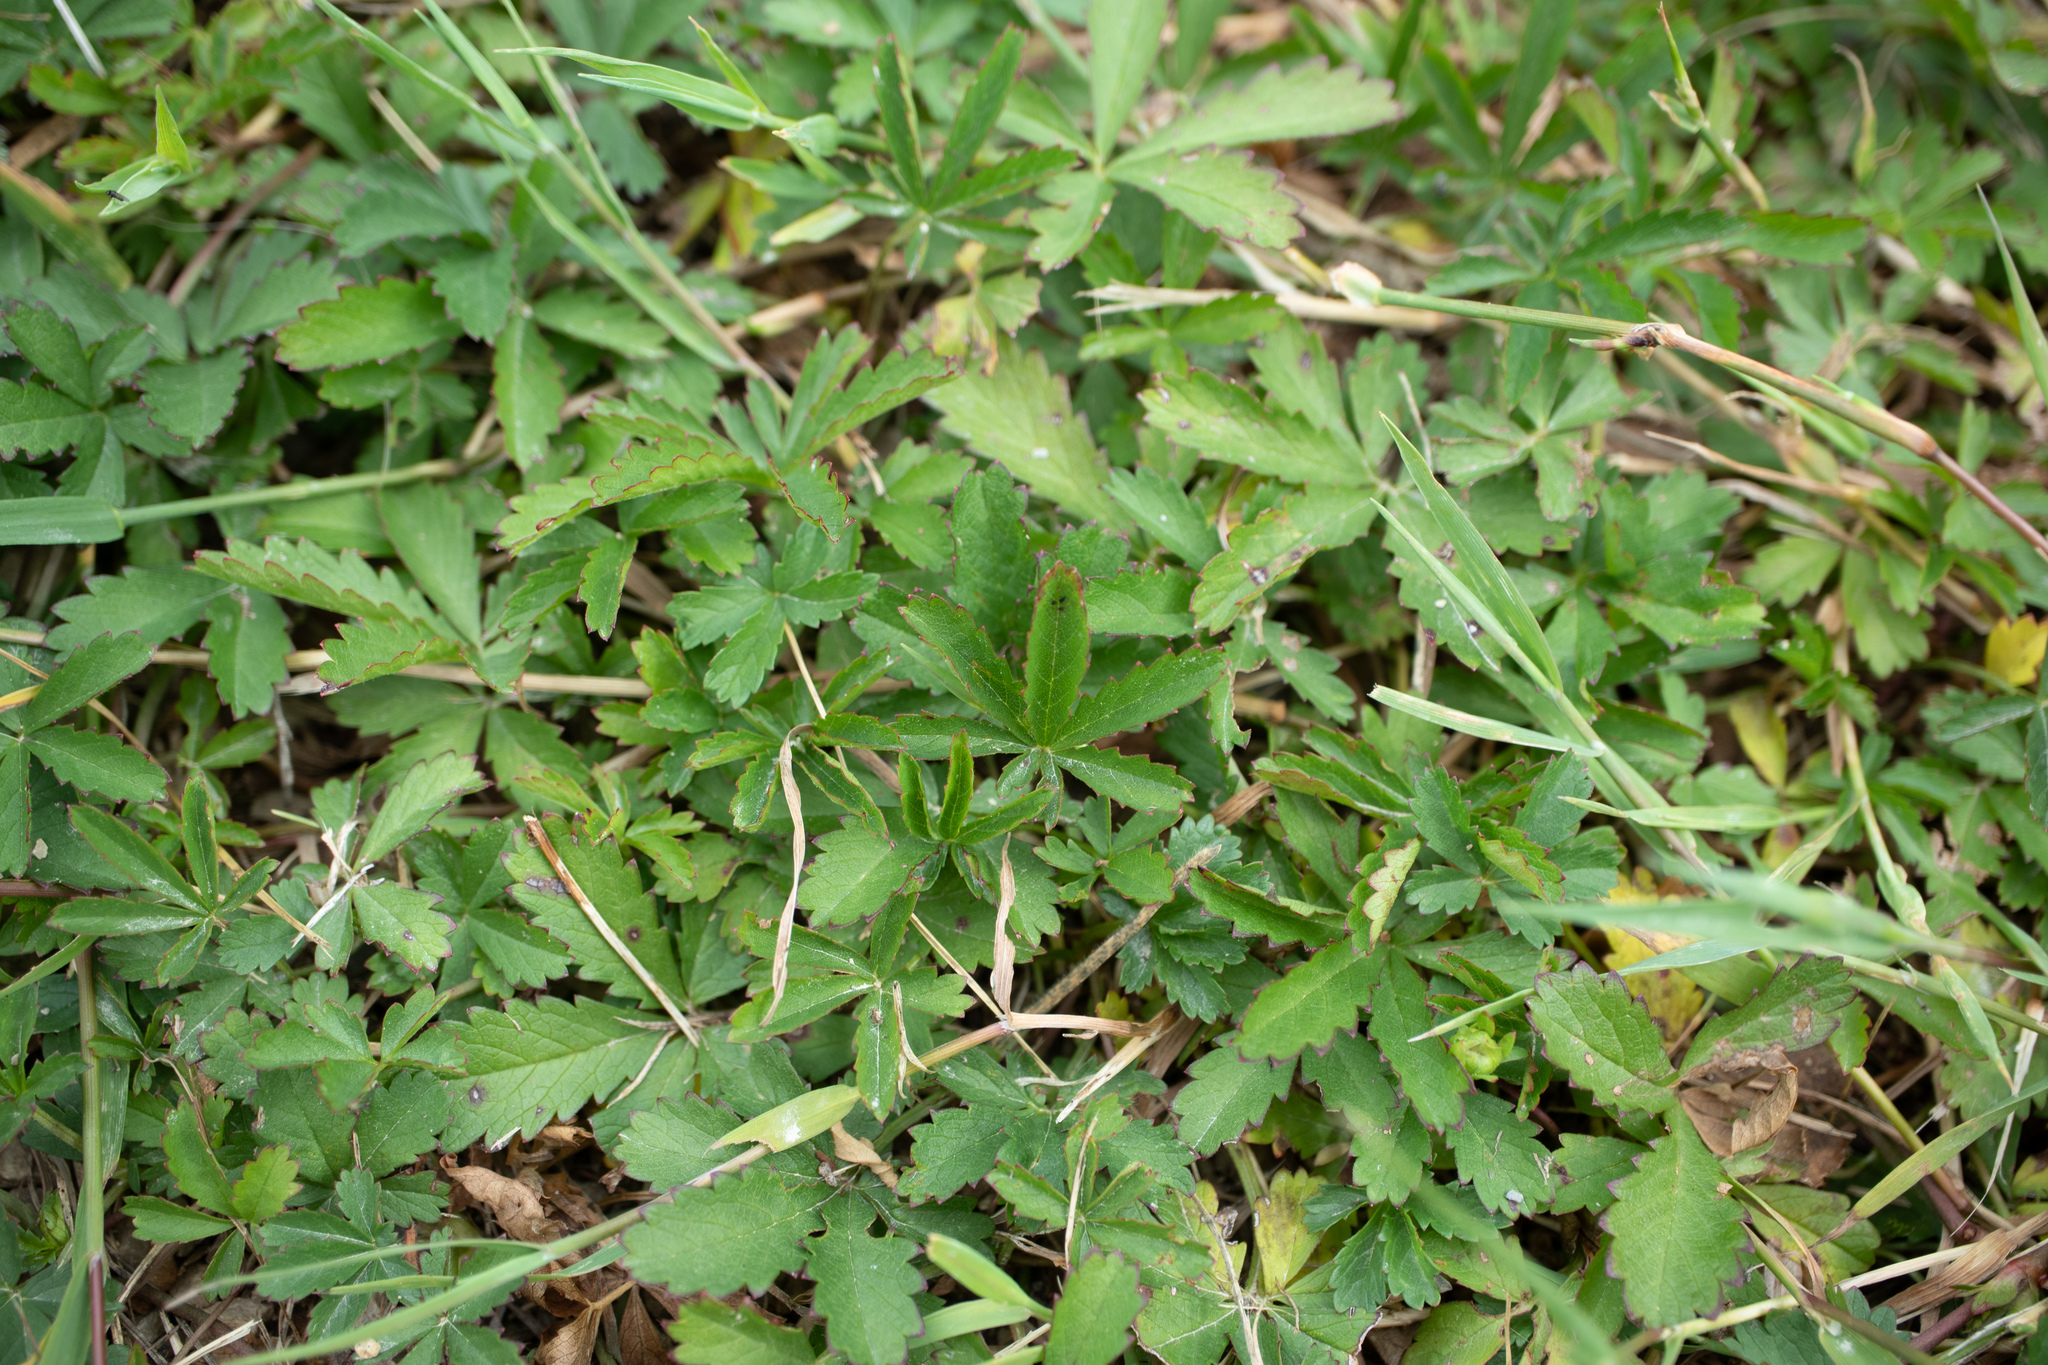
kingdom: Plantae
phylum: Tracheophyta
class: Magnoliopsida
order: Rosales
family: Rosaceae
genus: Potentilla
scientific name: Potentilla reptans
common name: Creeping cinquefoil
